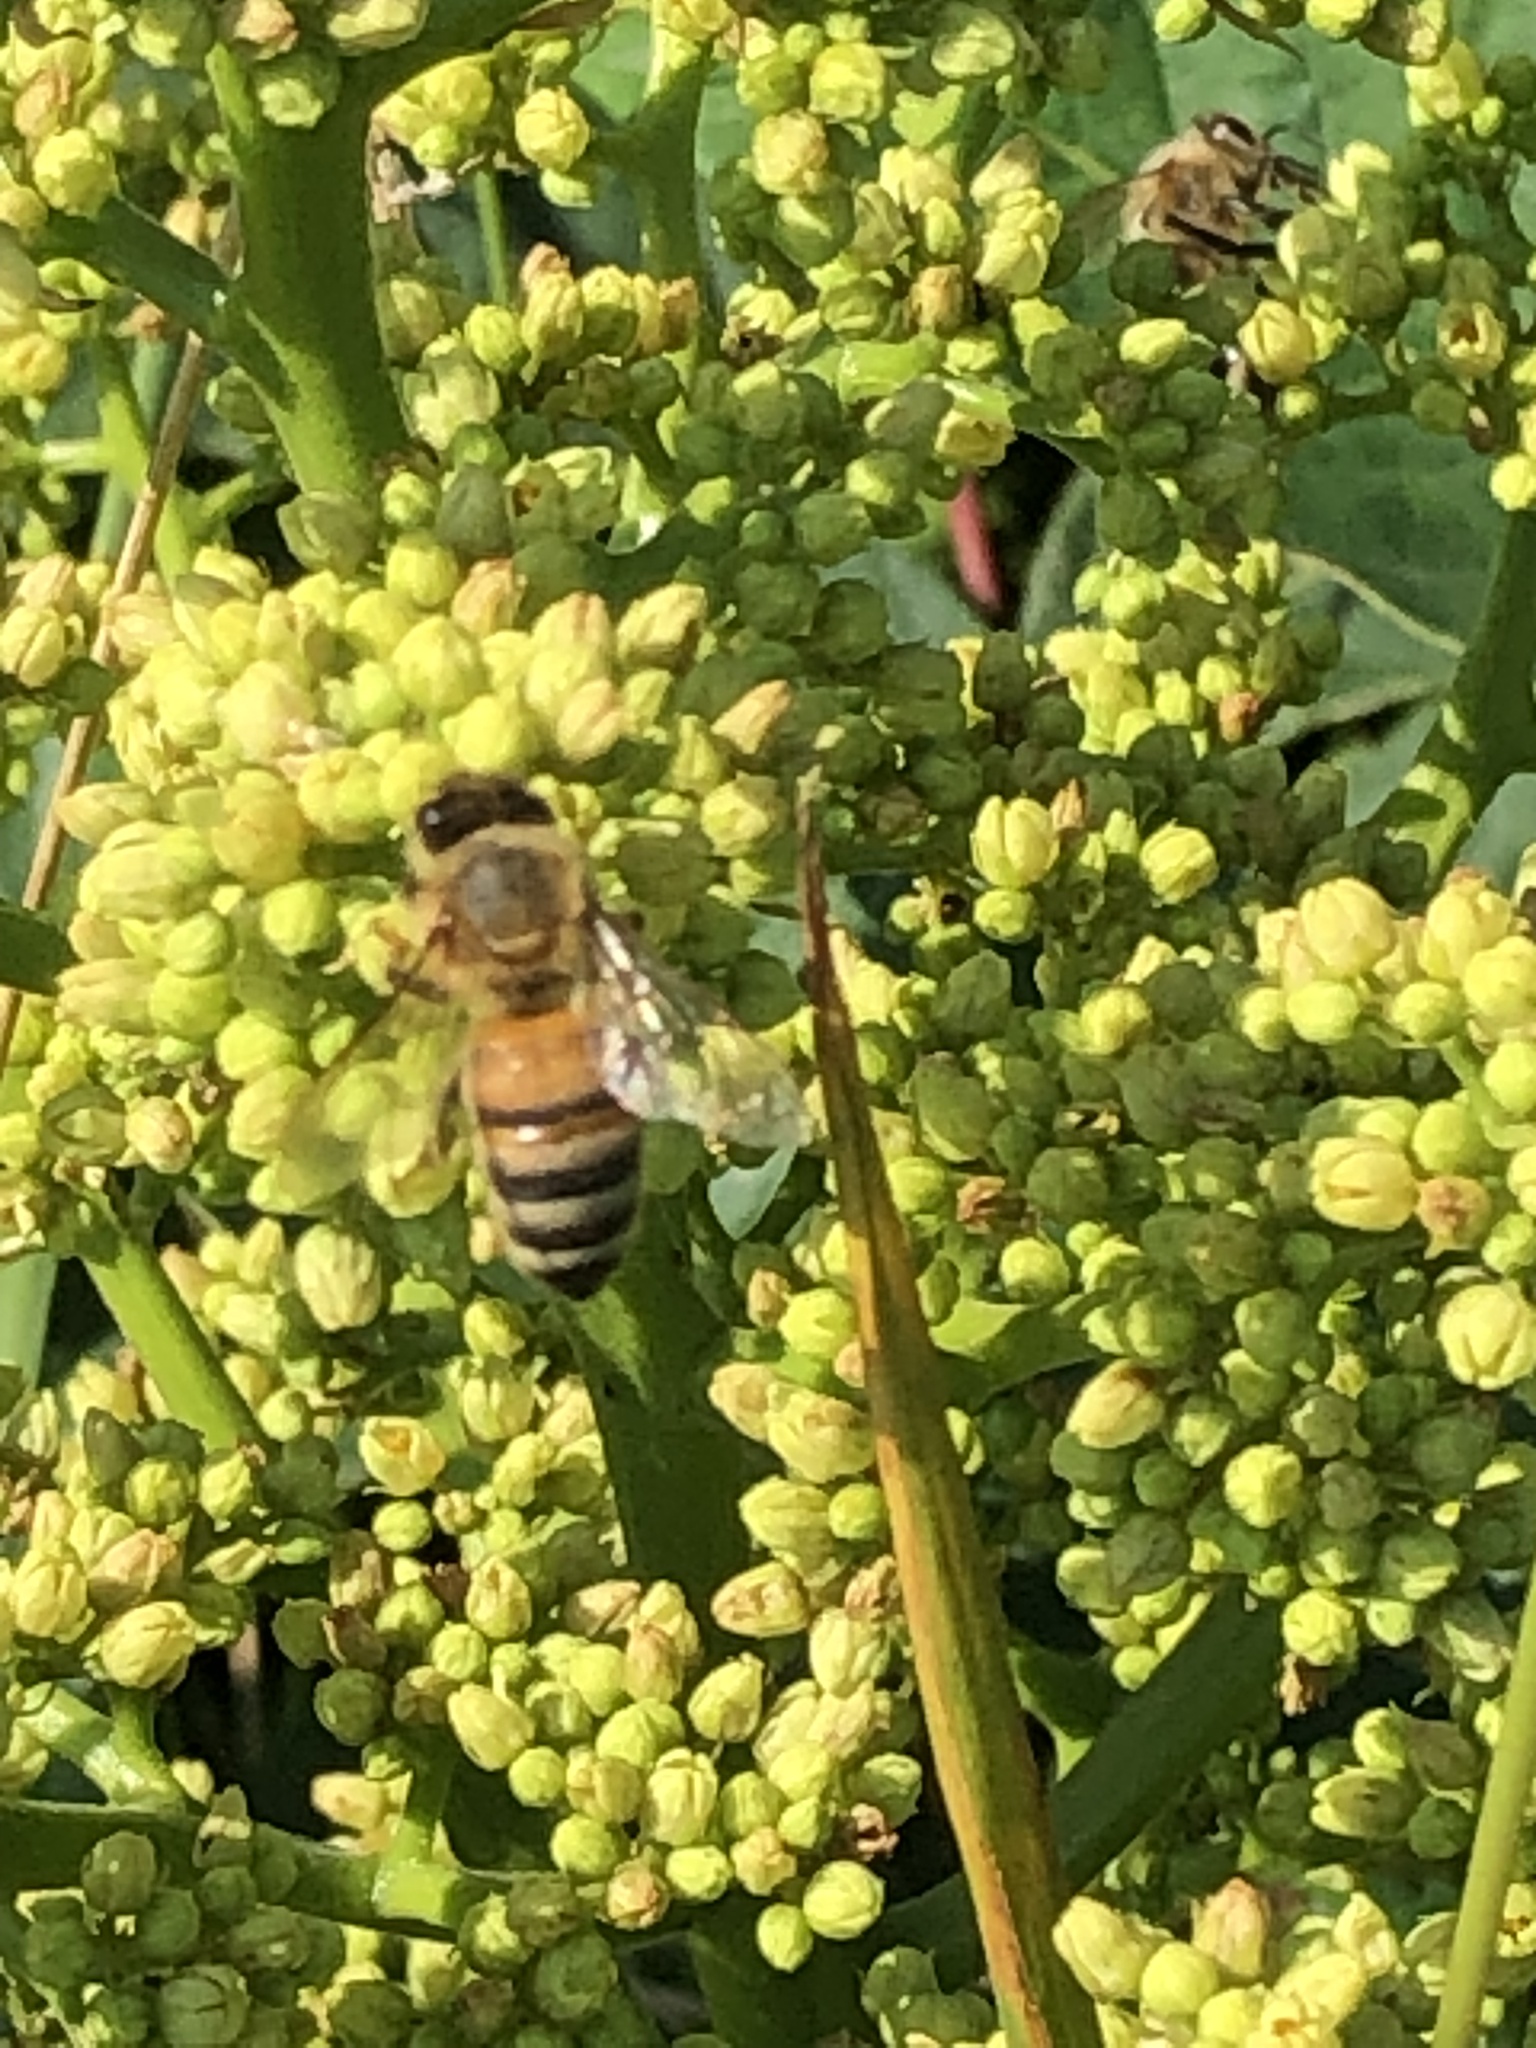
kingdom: Animalia
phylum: Arthropoda
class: Insecta
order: Hymenoptera
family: Apidae
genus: Apis
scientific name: Apis mellifera
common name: Honey bee
